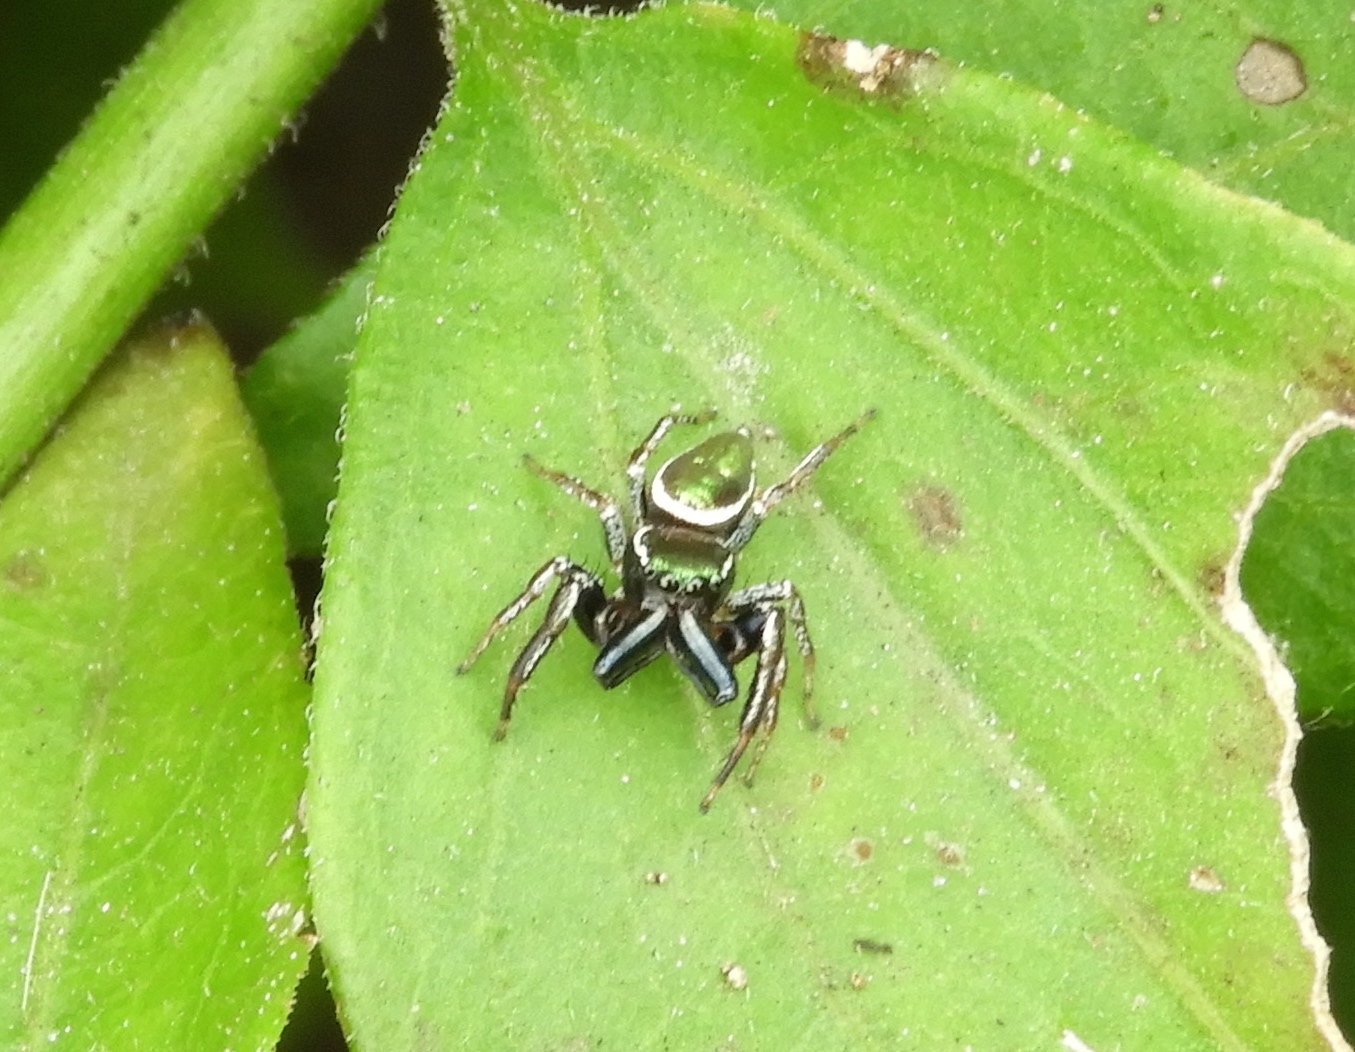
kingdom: Animalia
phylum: Arthropoda
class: Arachnida
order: Araneae
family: Salticidae
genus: Messua
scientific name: Messua limbata
